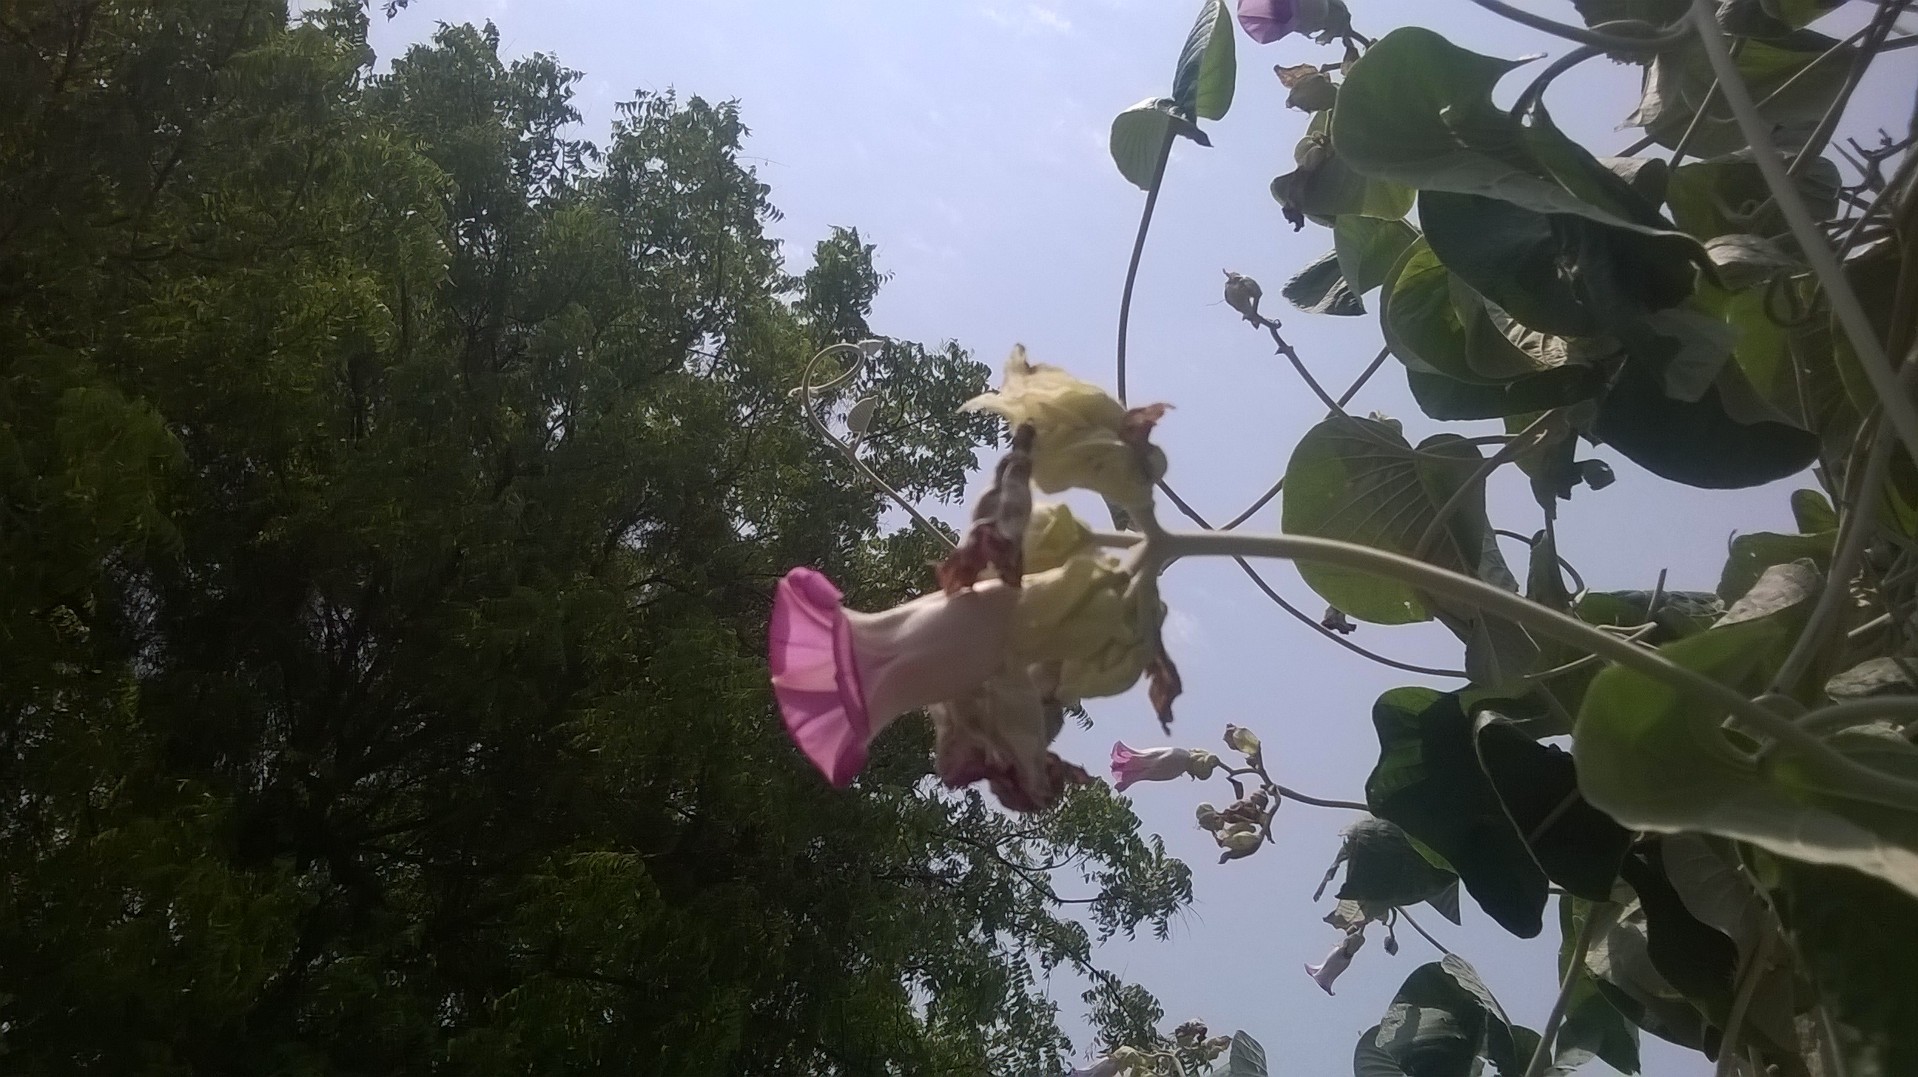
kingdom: Plantae
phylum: Tracheophyta
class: Magnoliopsida
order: Solanales
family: Convolvulaceae
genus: Argyreia
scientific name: Argyreia nervosa
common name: Elephant creeper
